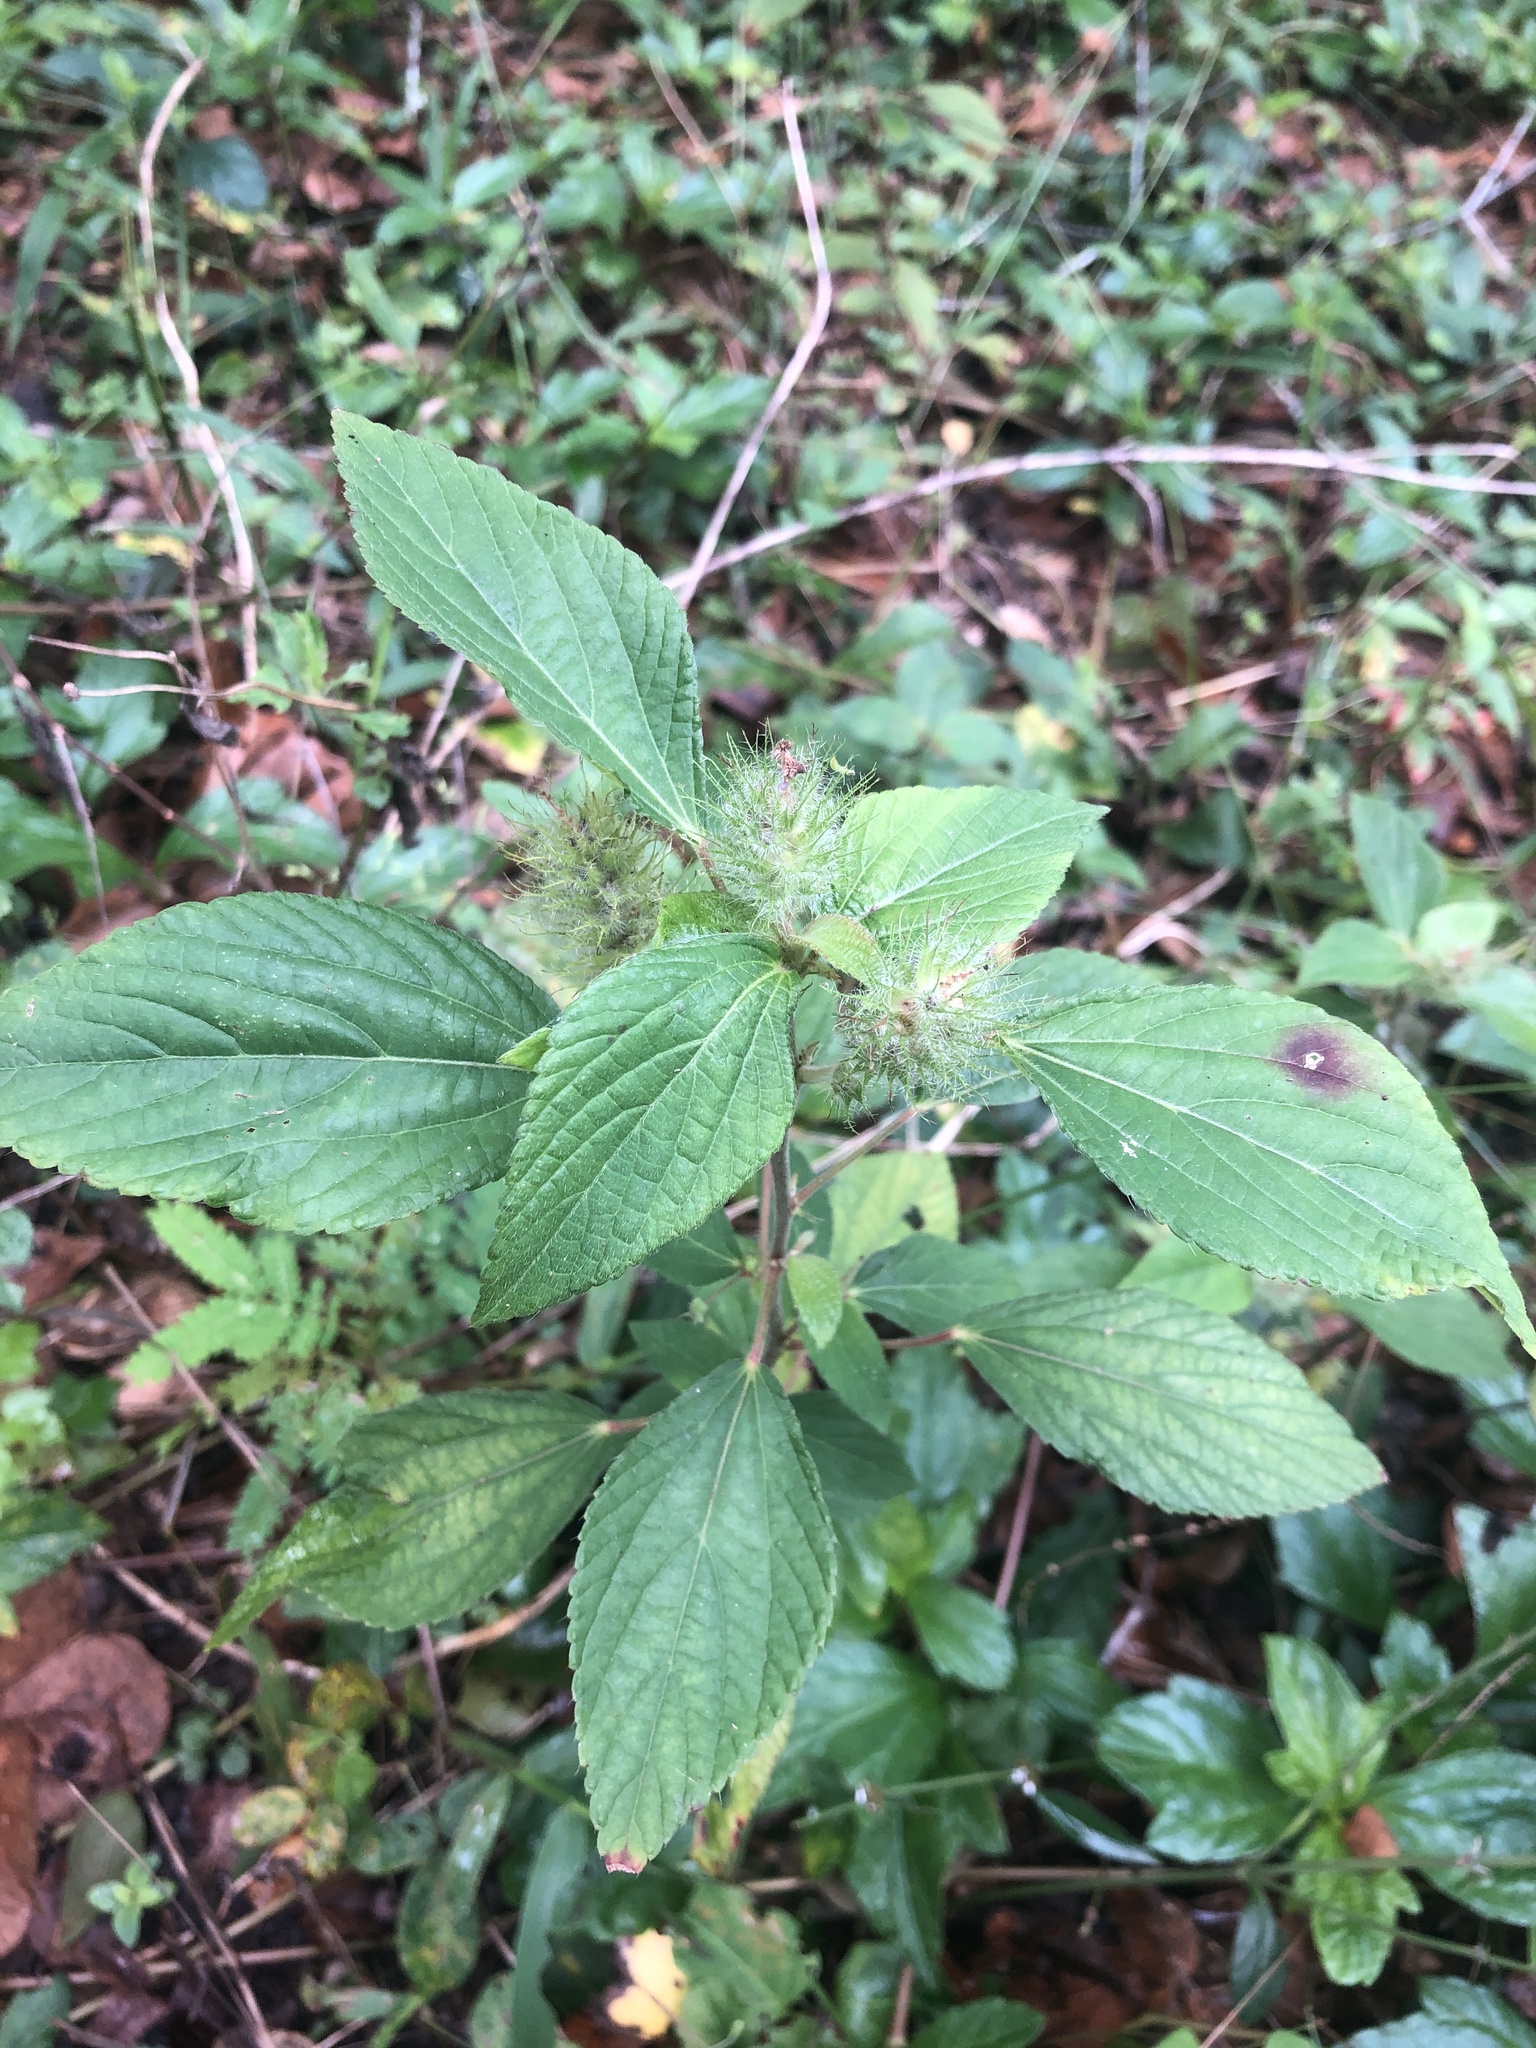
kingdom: Plantae
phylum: Tracheophyta
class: Magnoliopsida
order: Malpighiales
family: Euphorbiaceae
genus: Acalypha
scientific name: Acalypha arvensis
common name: Field copperleaf
